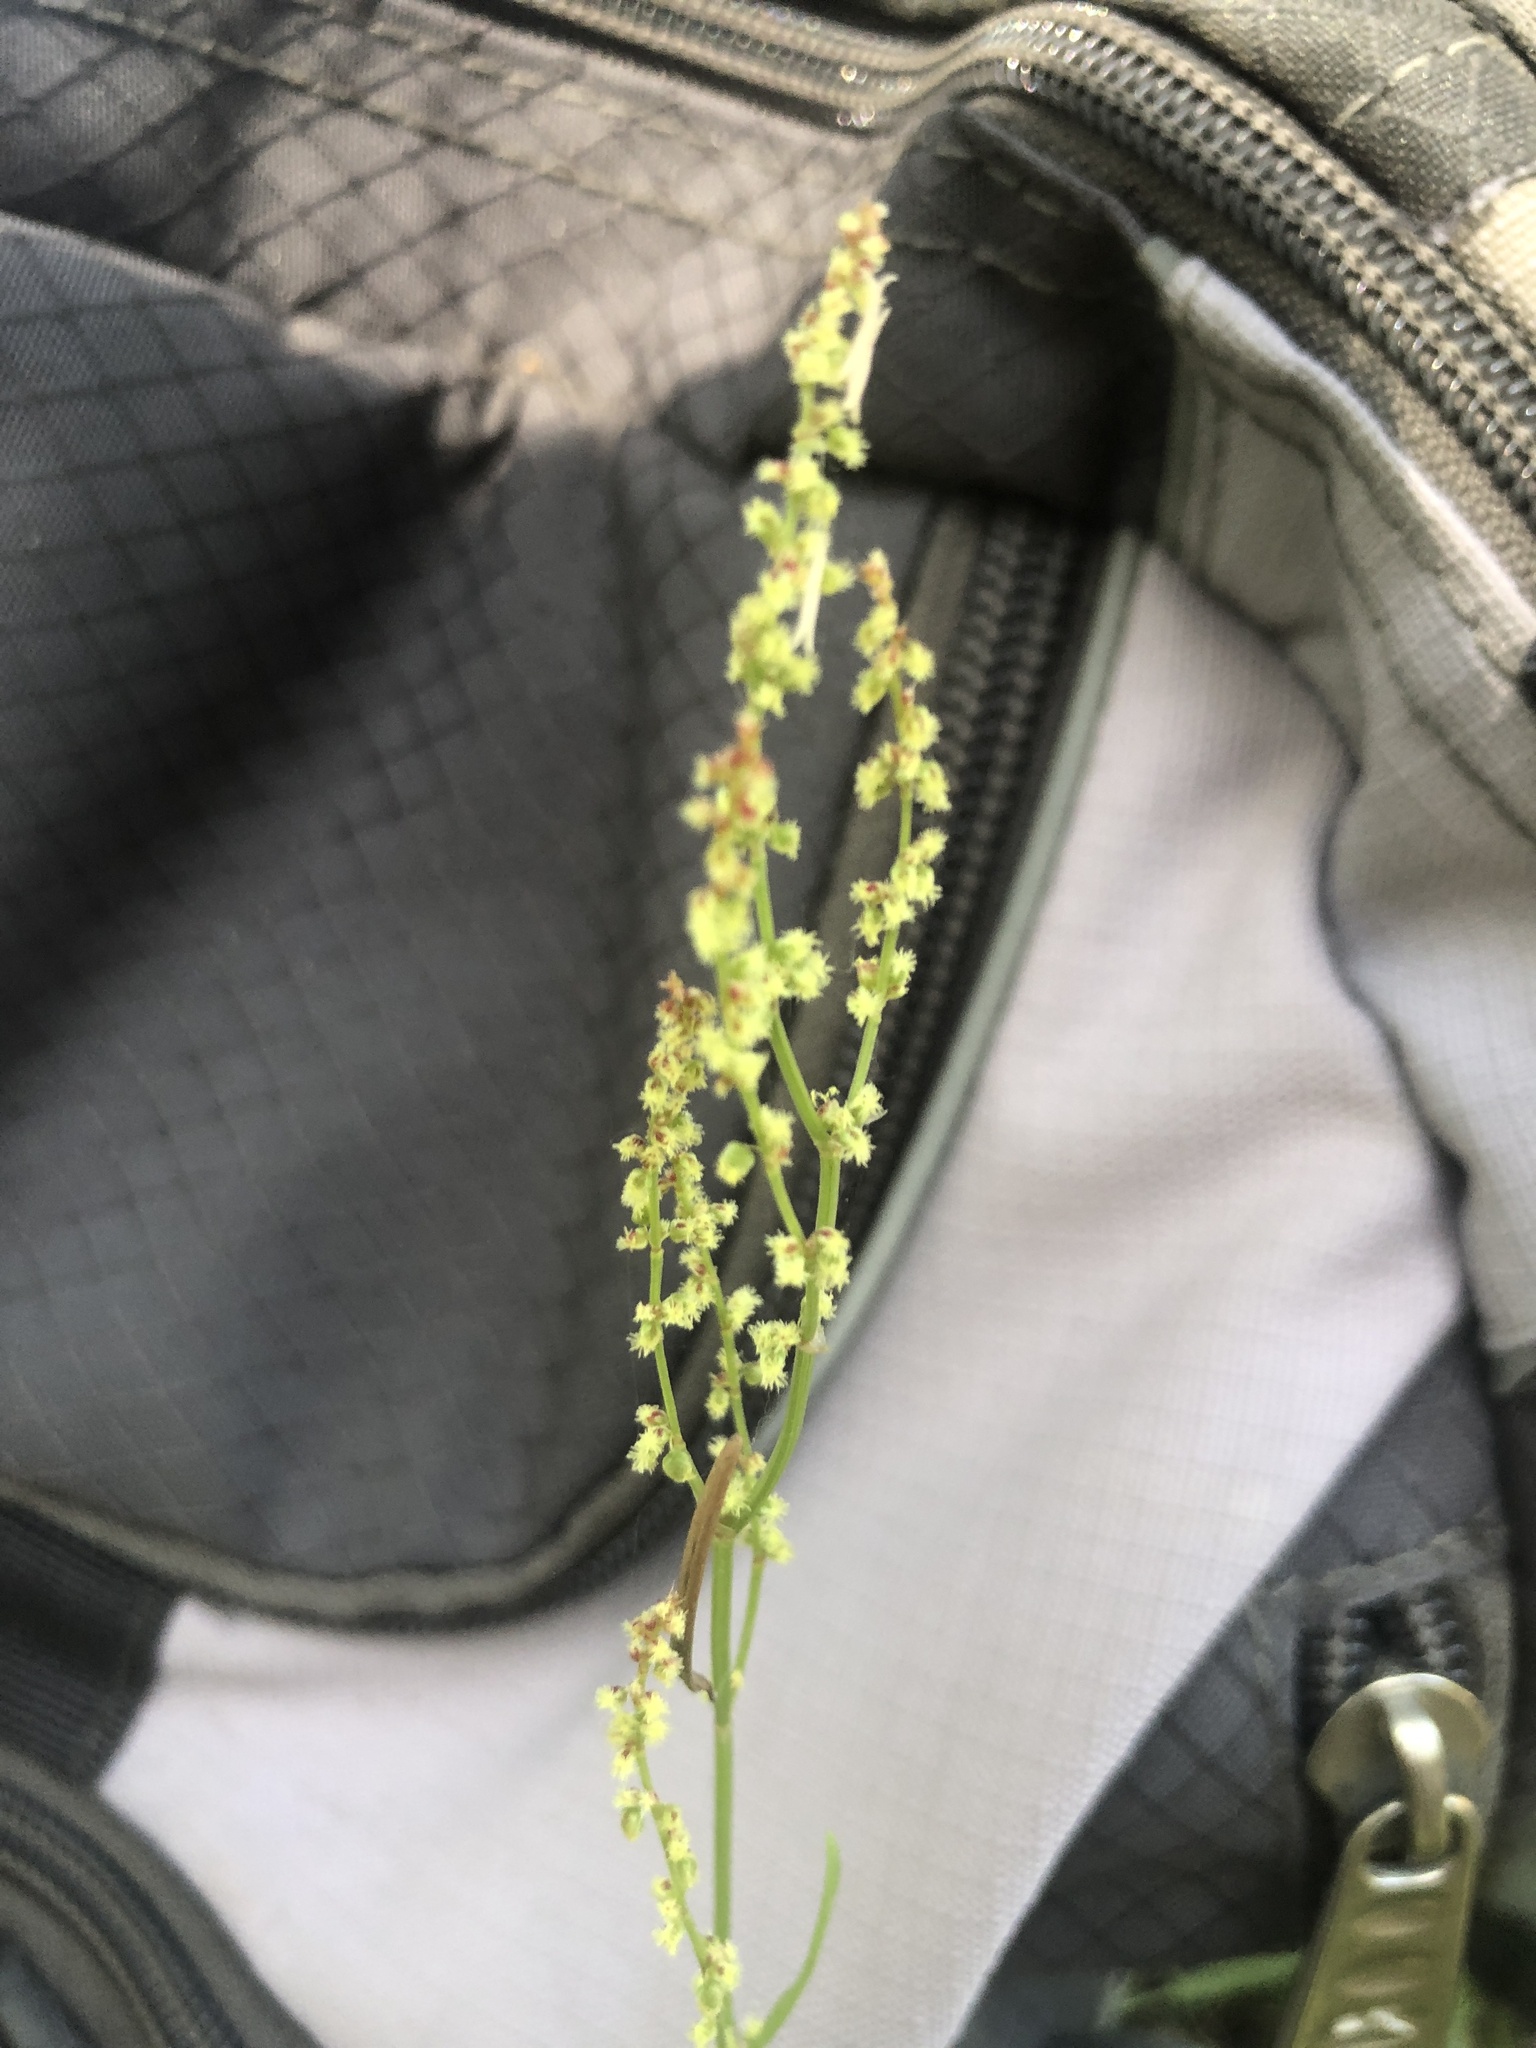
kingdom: Plantae
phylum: Tracheophyta
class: Magnoliopsida
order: Caryophyllales
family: Polygonaceae
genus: Rumex
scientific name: Rumex acetosella
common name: Common sheep sorrel
